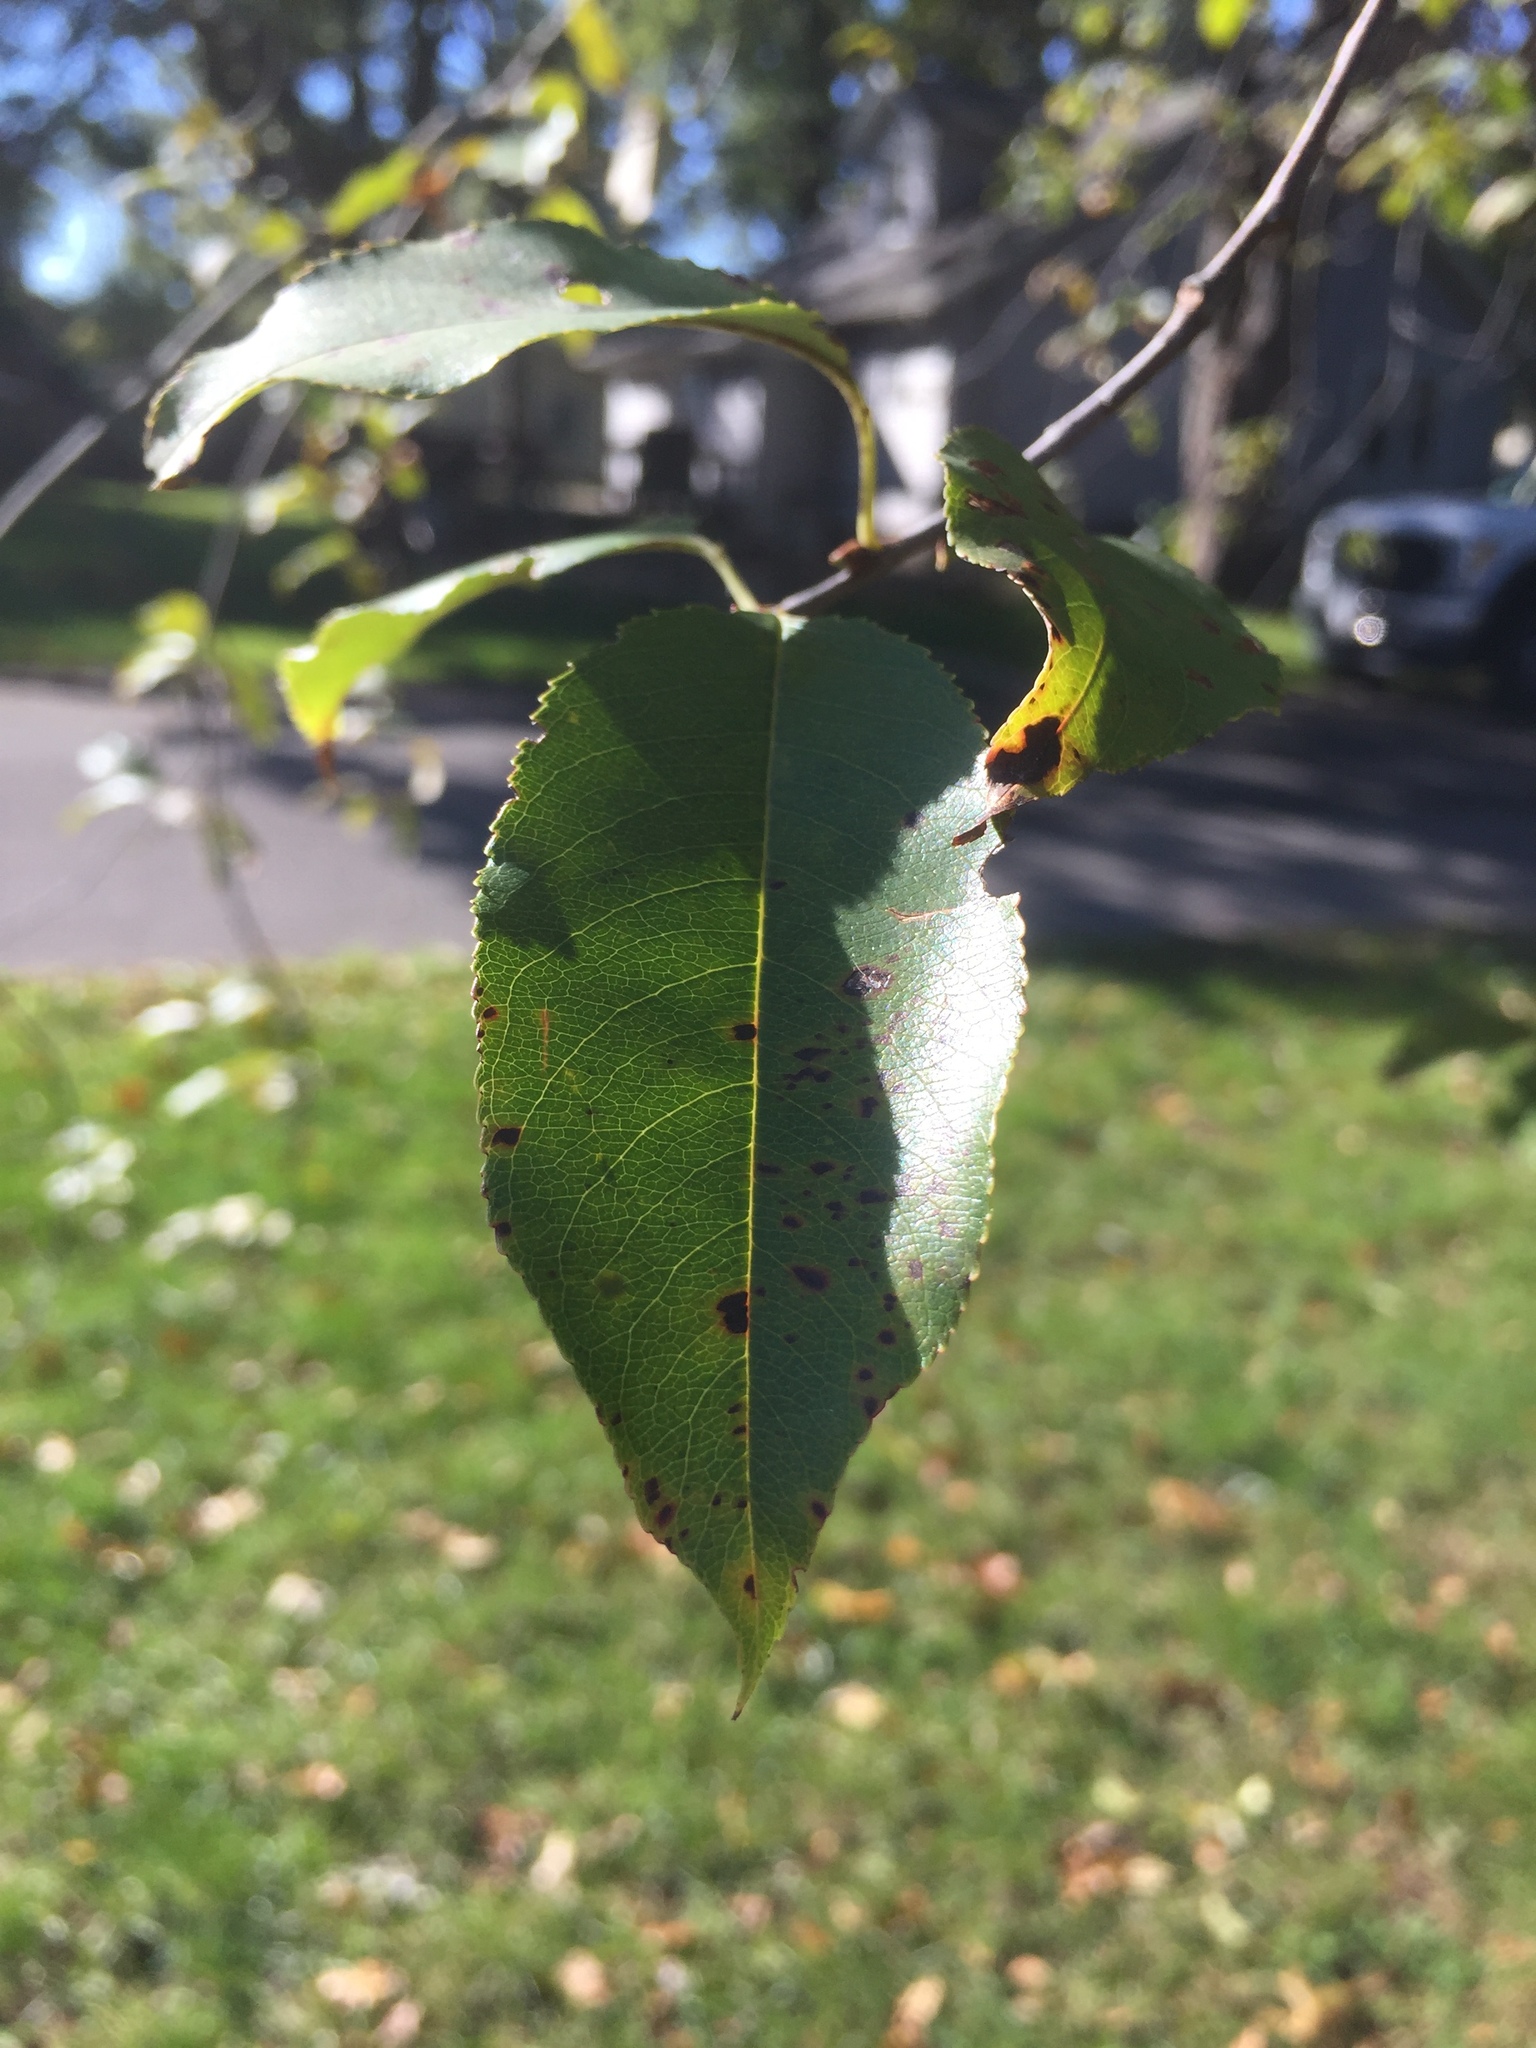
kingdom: Plantae
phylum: Tracheophyta
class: Magnoliopsida
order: Rosales
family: Rosaceae
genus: Prunus
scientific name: Prunus serotina
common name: Black cherry
